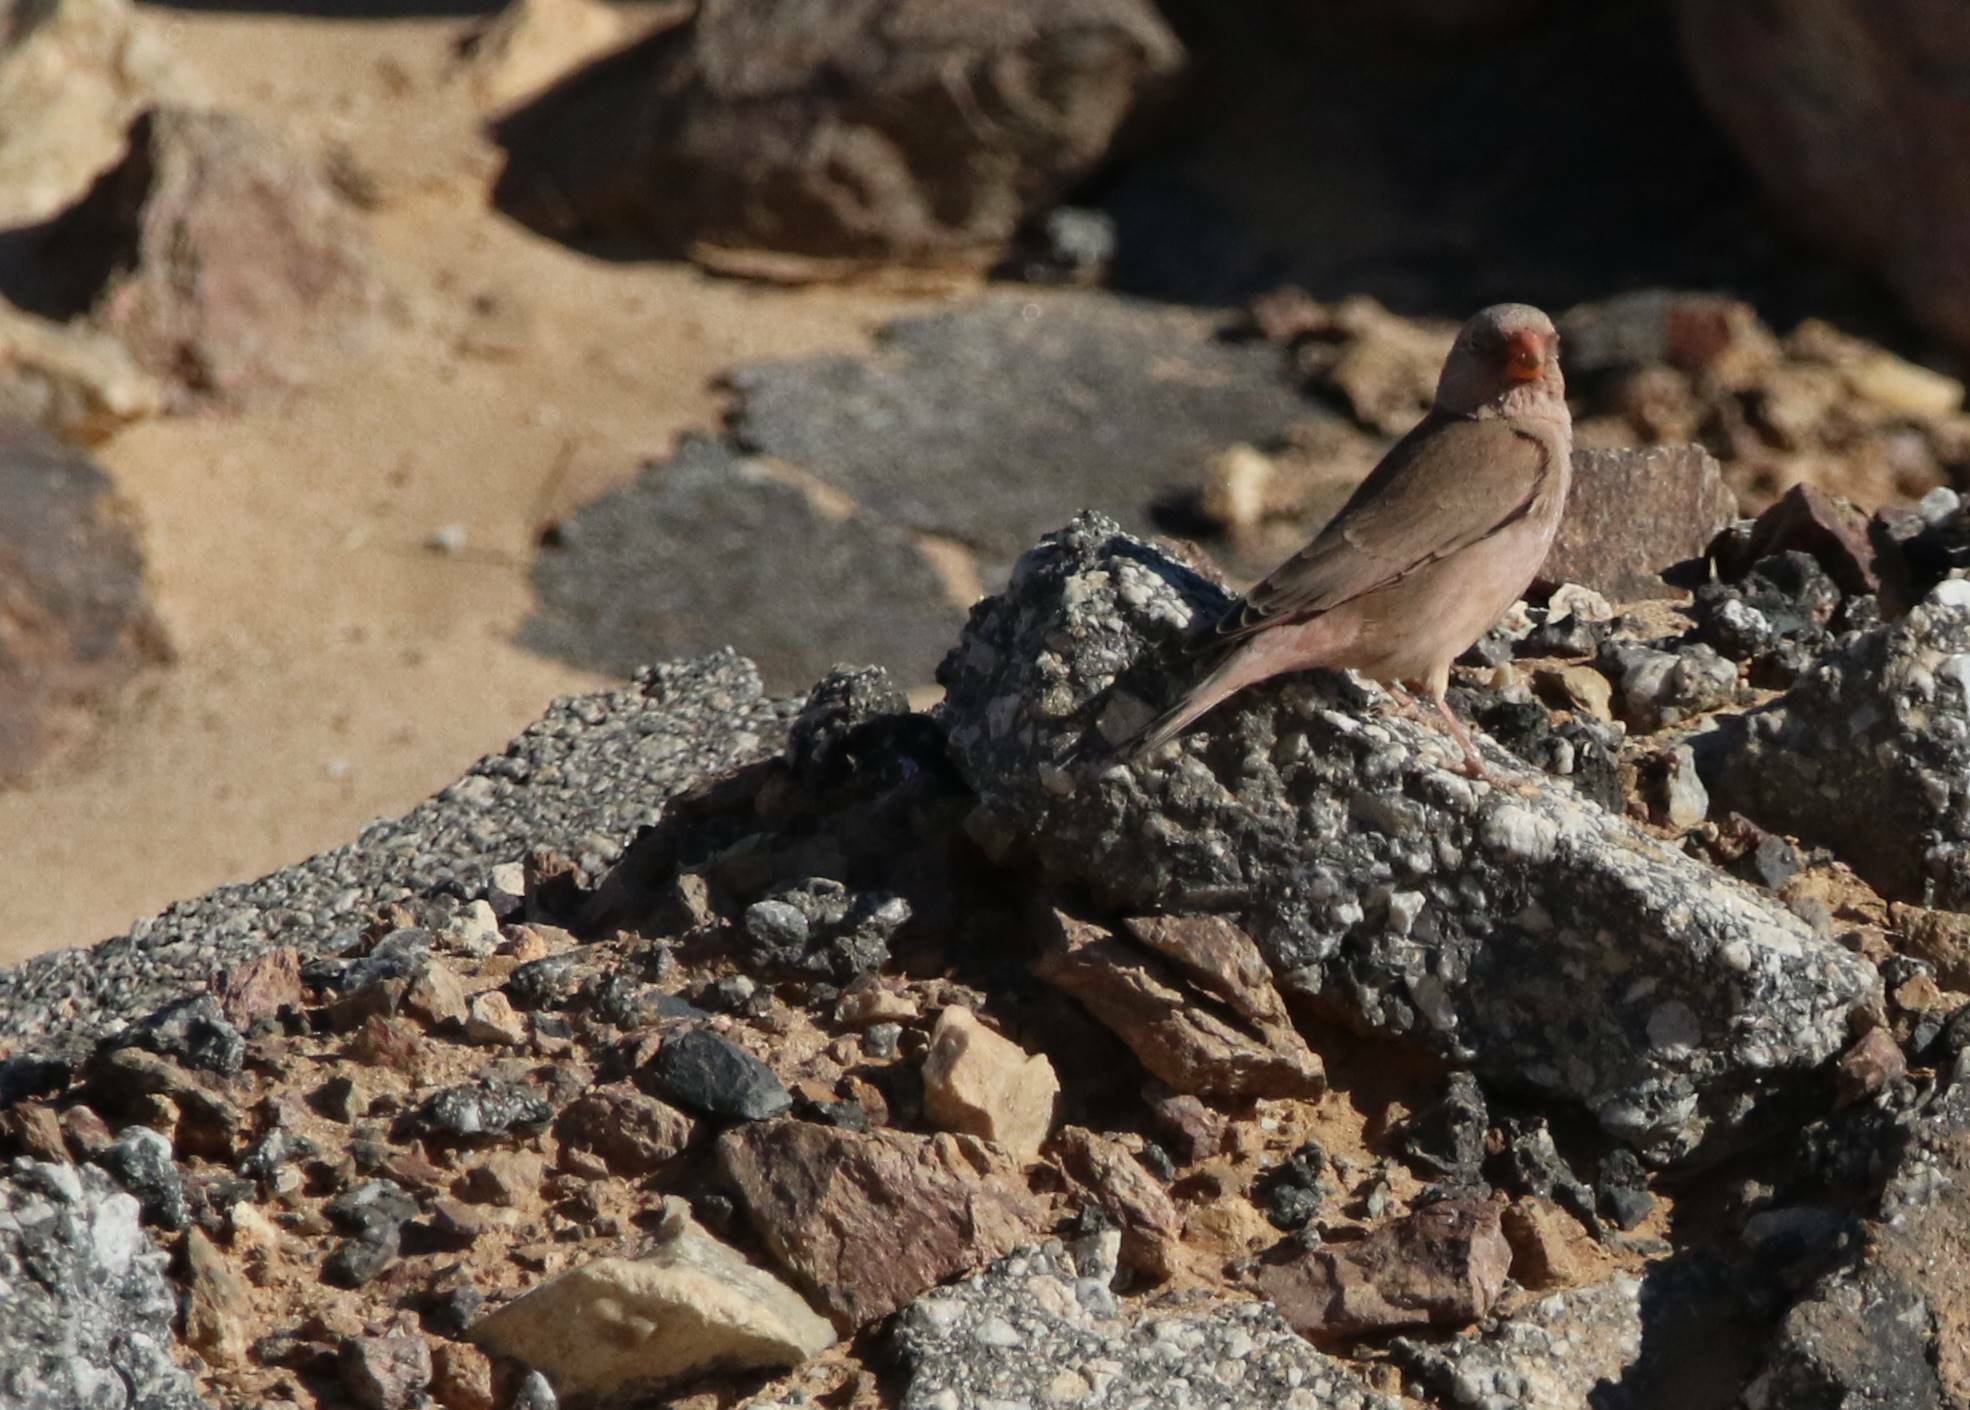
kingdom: Animalia
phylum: Chordata
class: Aves
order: Passeriformes
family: Fringillidae
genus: Bucanetes
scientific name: Bucanetes githagineus
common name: Trumpeter finch
